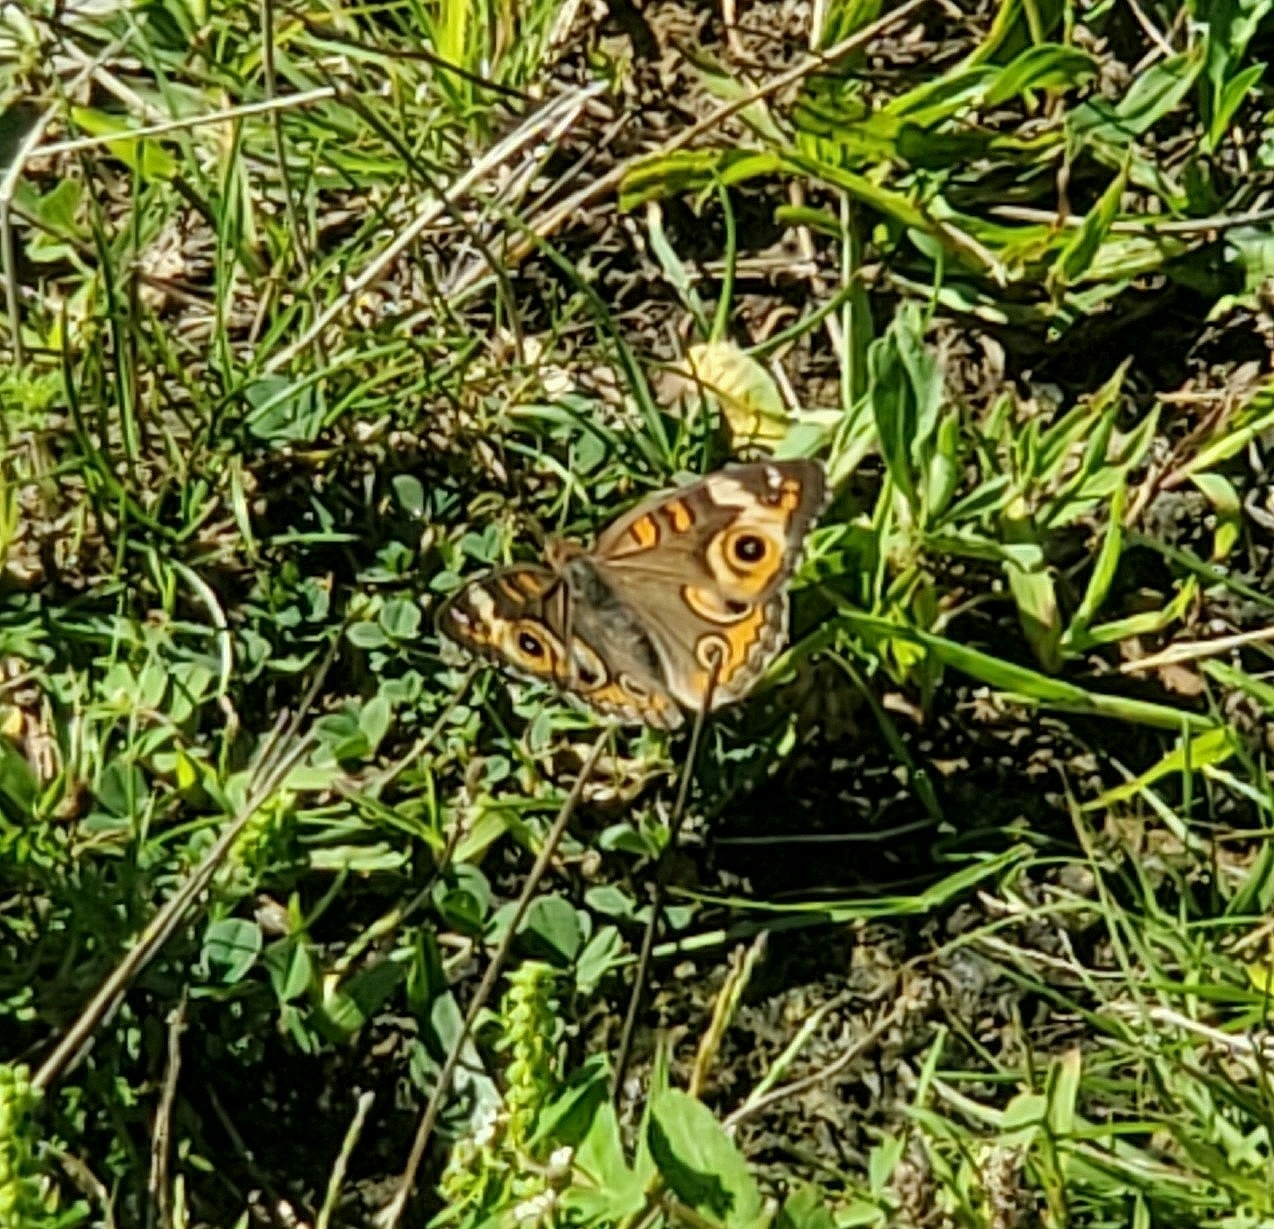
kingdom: Animalia
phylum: Arthropoda
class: Insecta
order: Lepidoptera
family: Nymphalidae
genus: Junonia
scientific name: Junonia coenia
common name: Common buckeye
